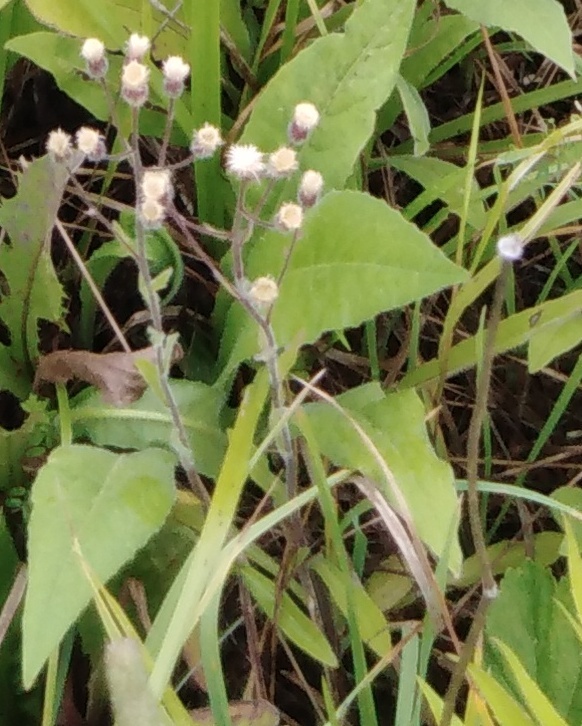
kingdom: Plantae
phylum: Tracheophyta
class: Magnoliopsida
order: Asterales
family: Asteraceae
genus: Erigeron
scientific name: Erigeron acris
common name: Blue fleabane
